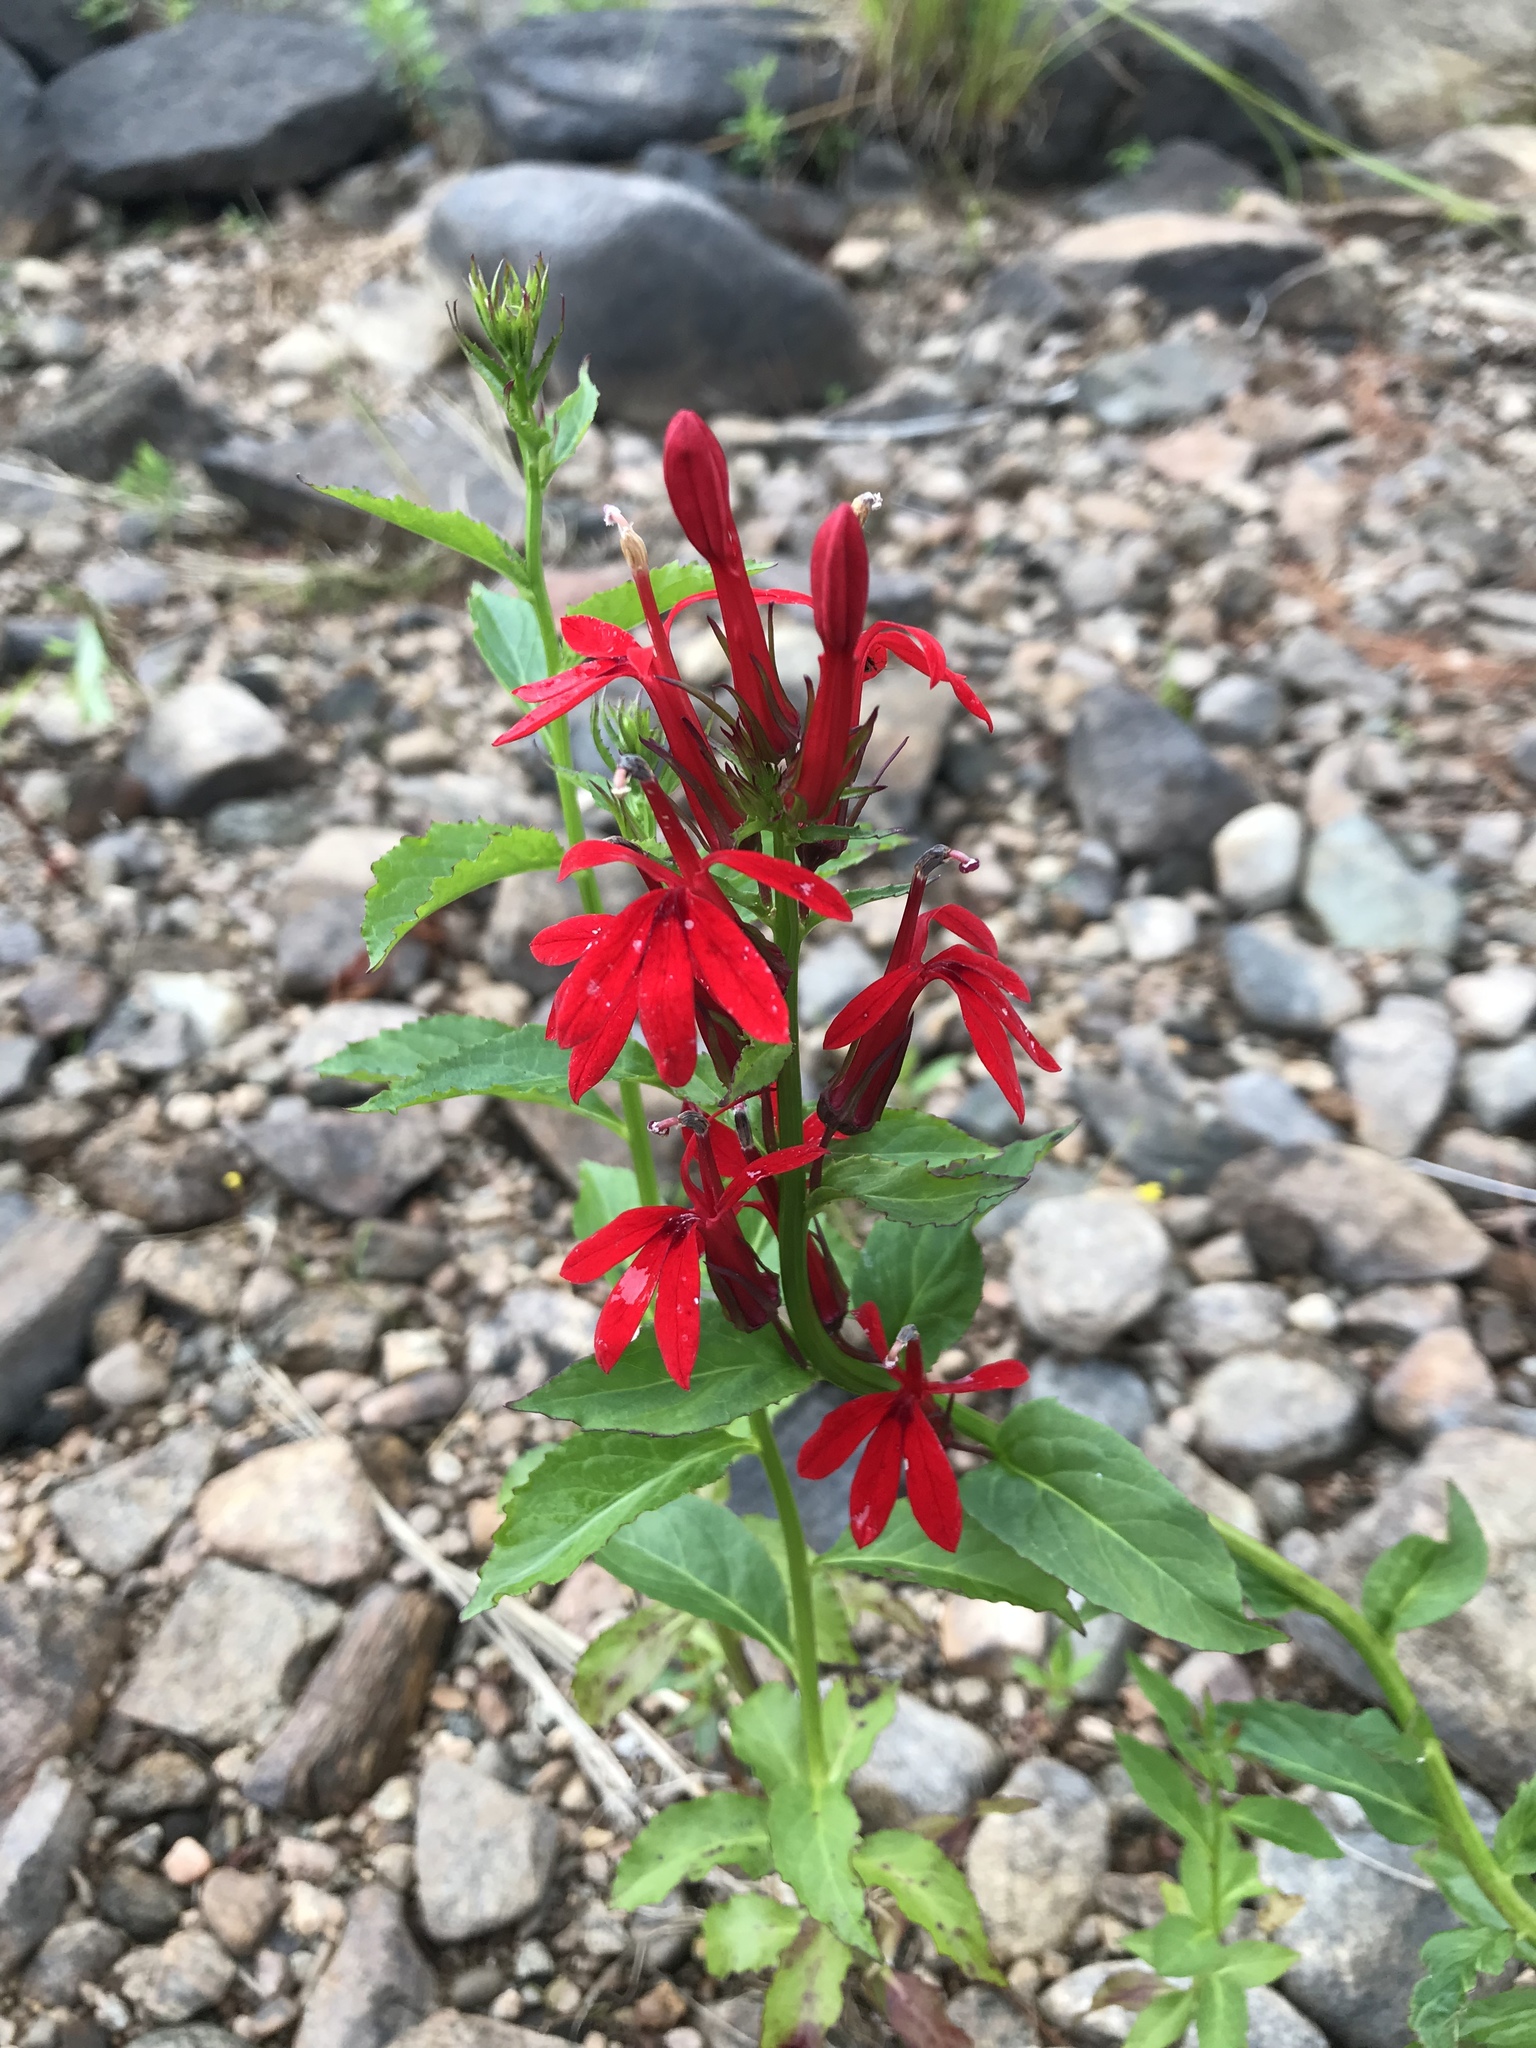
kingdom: Plantae
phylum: Tracheophyta
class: Magnoliopsida
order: Asterales
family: Campanulaceae
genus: Lobelia
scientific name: Lobelia cardinalis
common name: Cardinal flower
